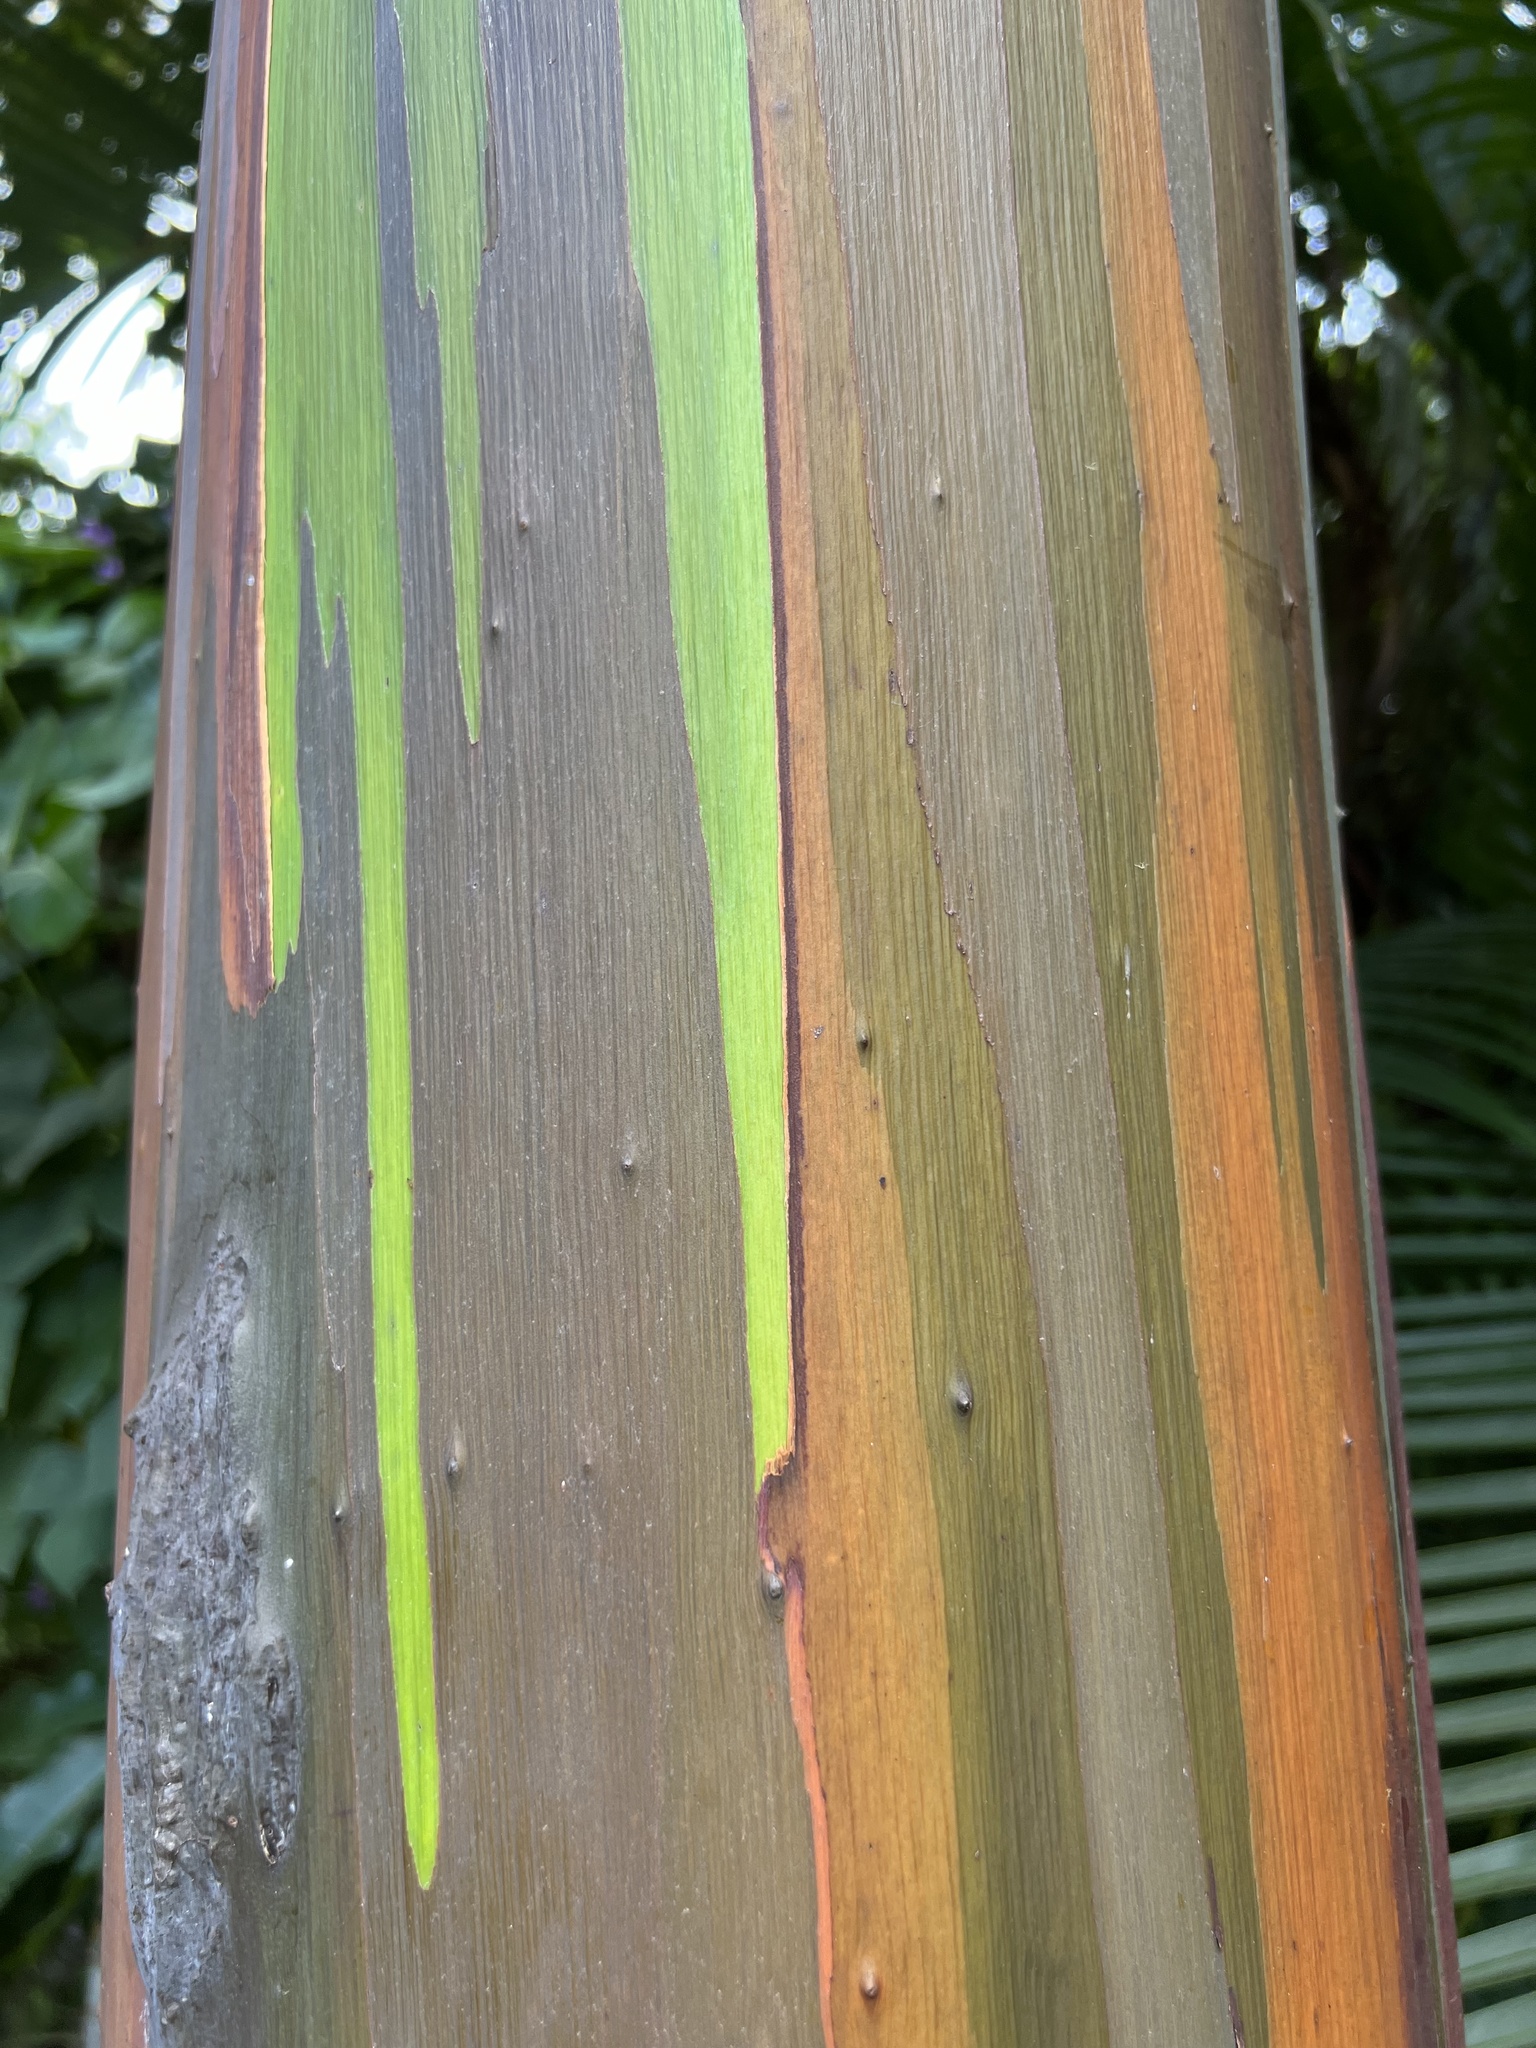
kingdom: Plantae
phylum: Tracheophyta
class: Magnoliopsida
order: Myrtales
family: Myrtaceae
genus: Eucalyptus
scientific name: Eucalyptus deglupta
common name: Mindanao gum
